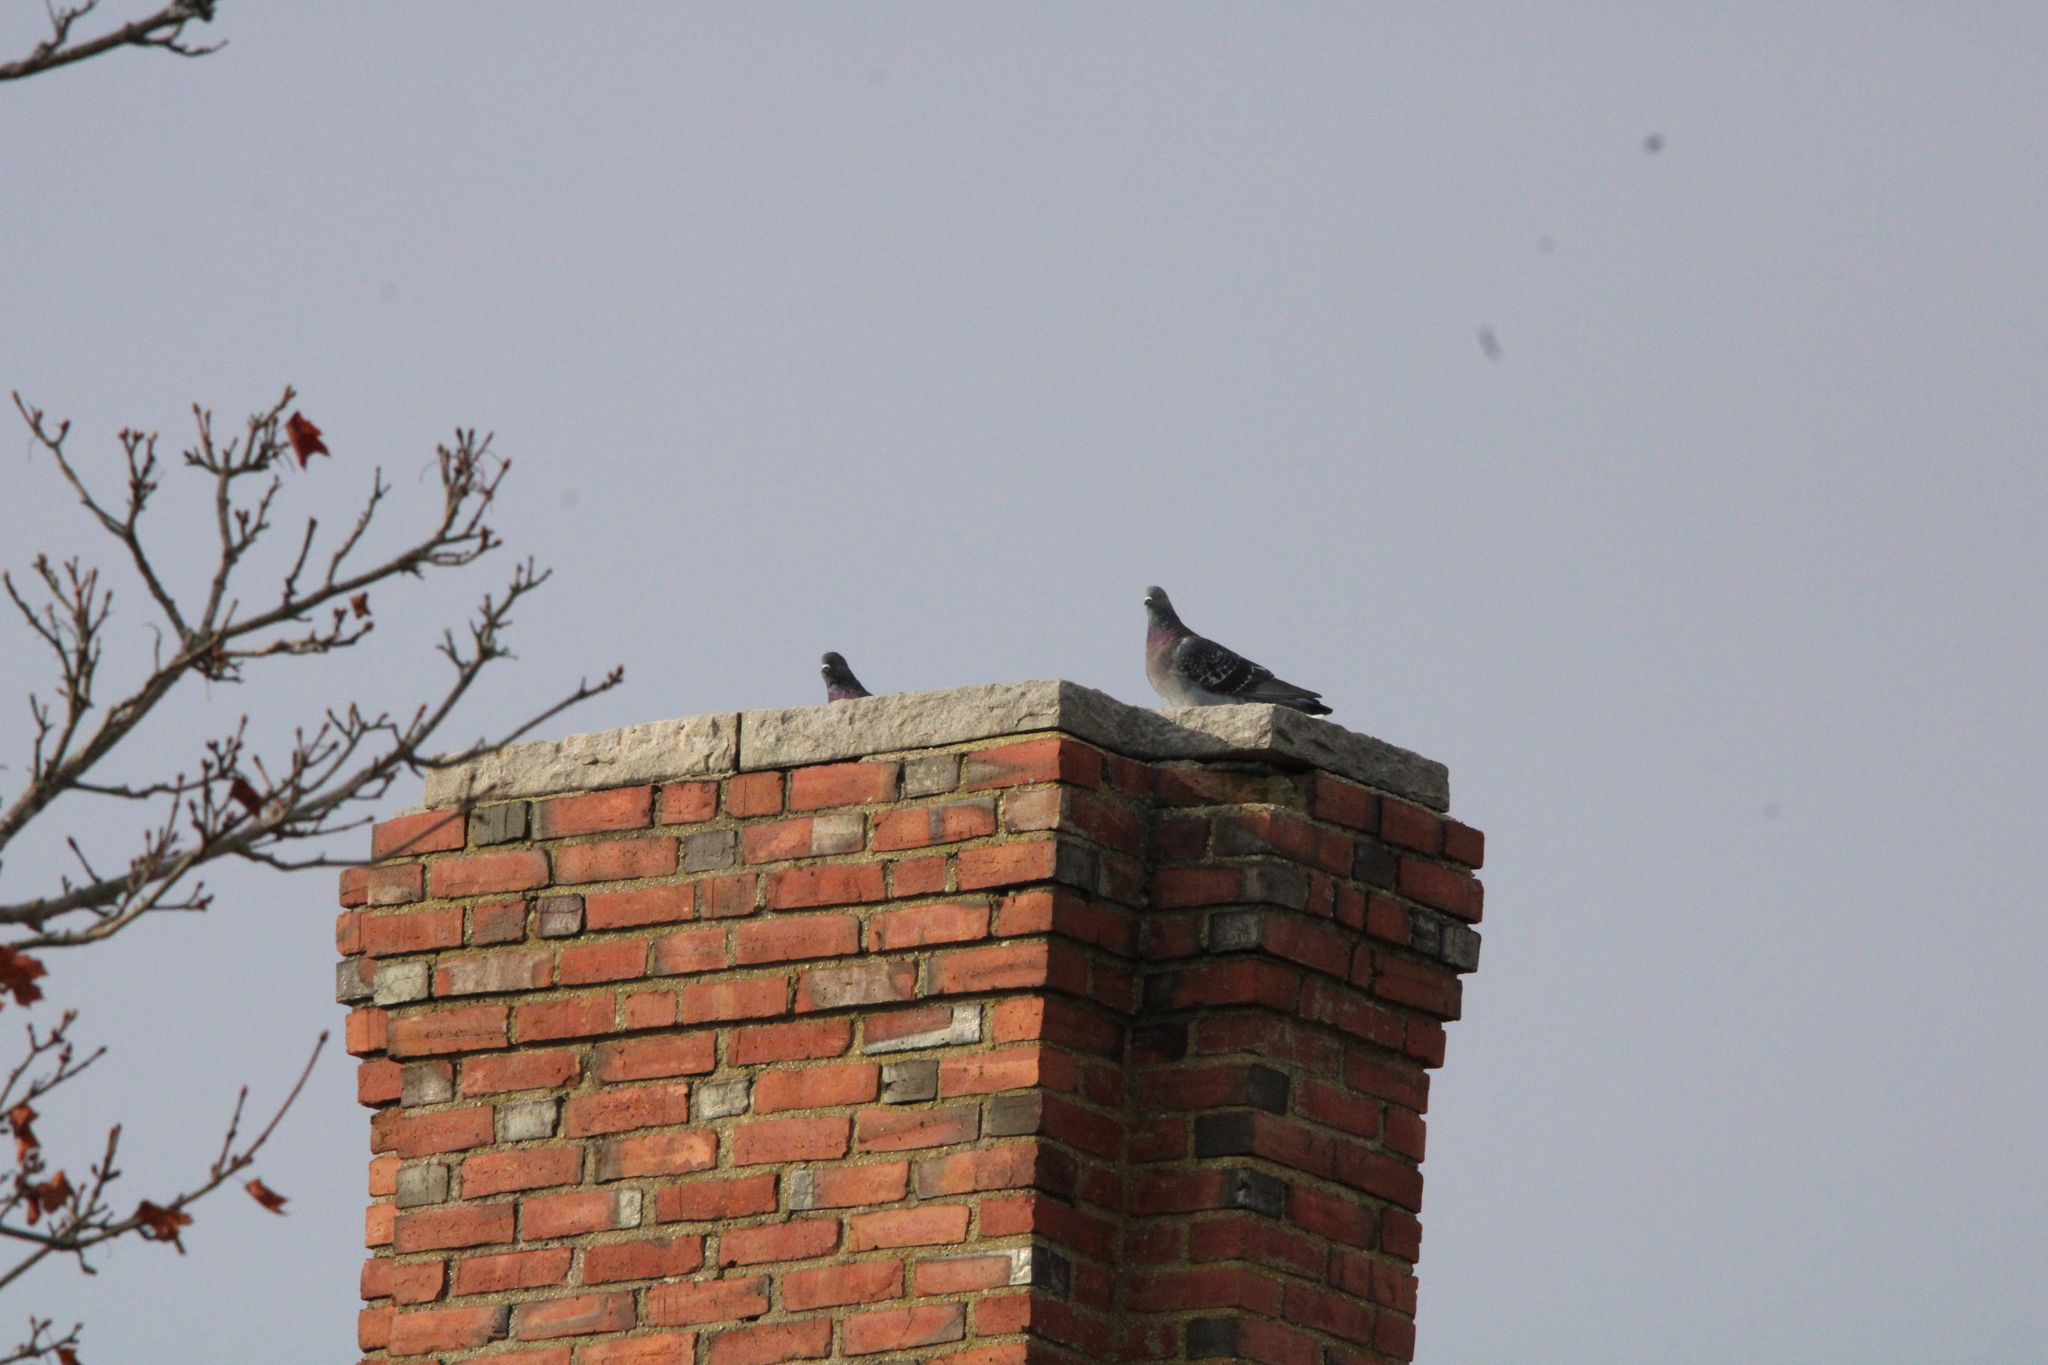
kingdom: Animalia
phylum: Chordata
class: Aves
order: Columbiformes
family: Columbidae
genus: Columba
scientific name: Columba livia
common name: Rock pigeon
